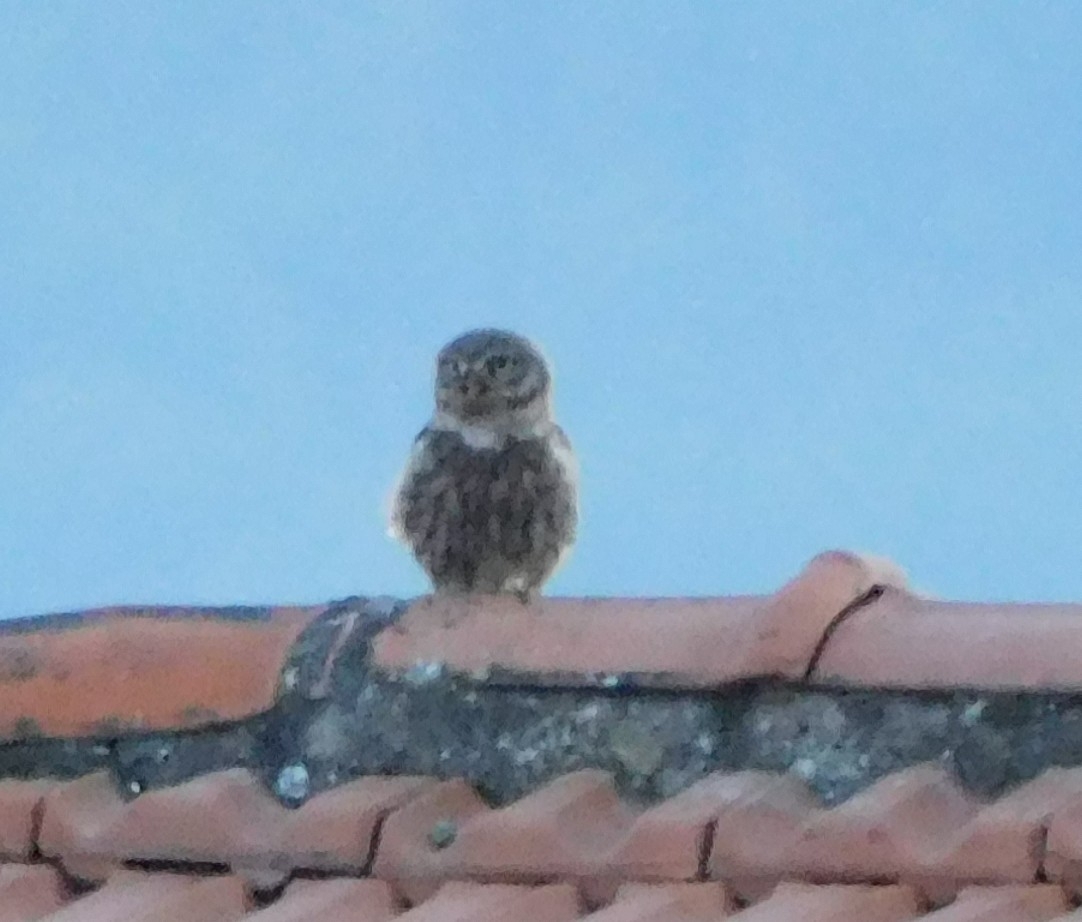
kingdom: Animalia
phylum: Chordata
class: Aves
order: Strigiformes
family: Strigidae
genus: Athene
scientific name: Athene noctua
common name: Little owl
